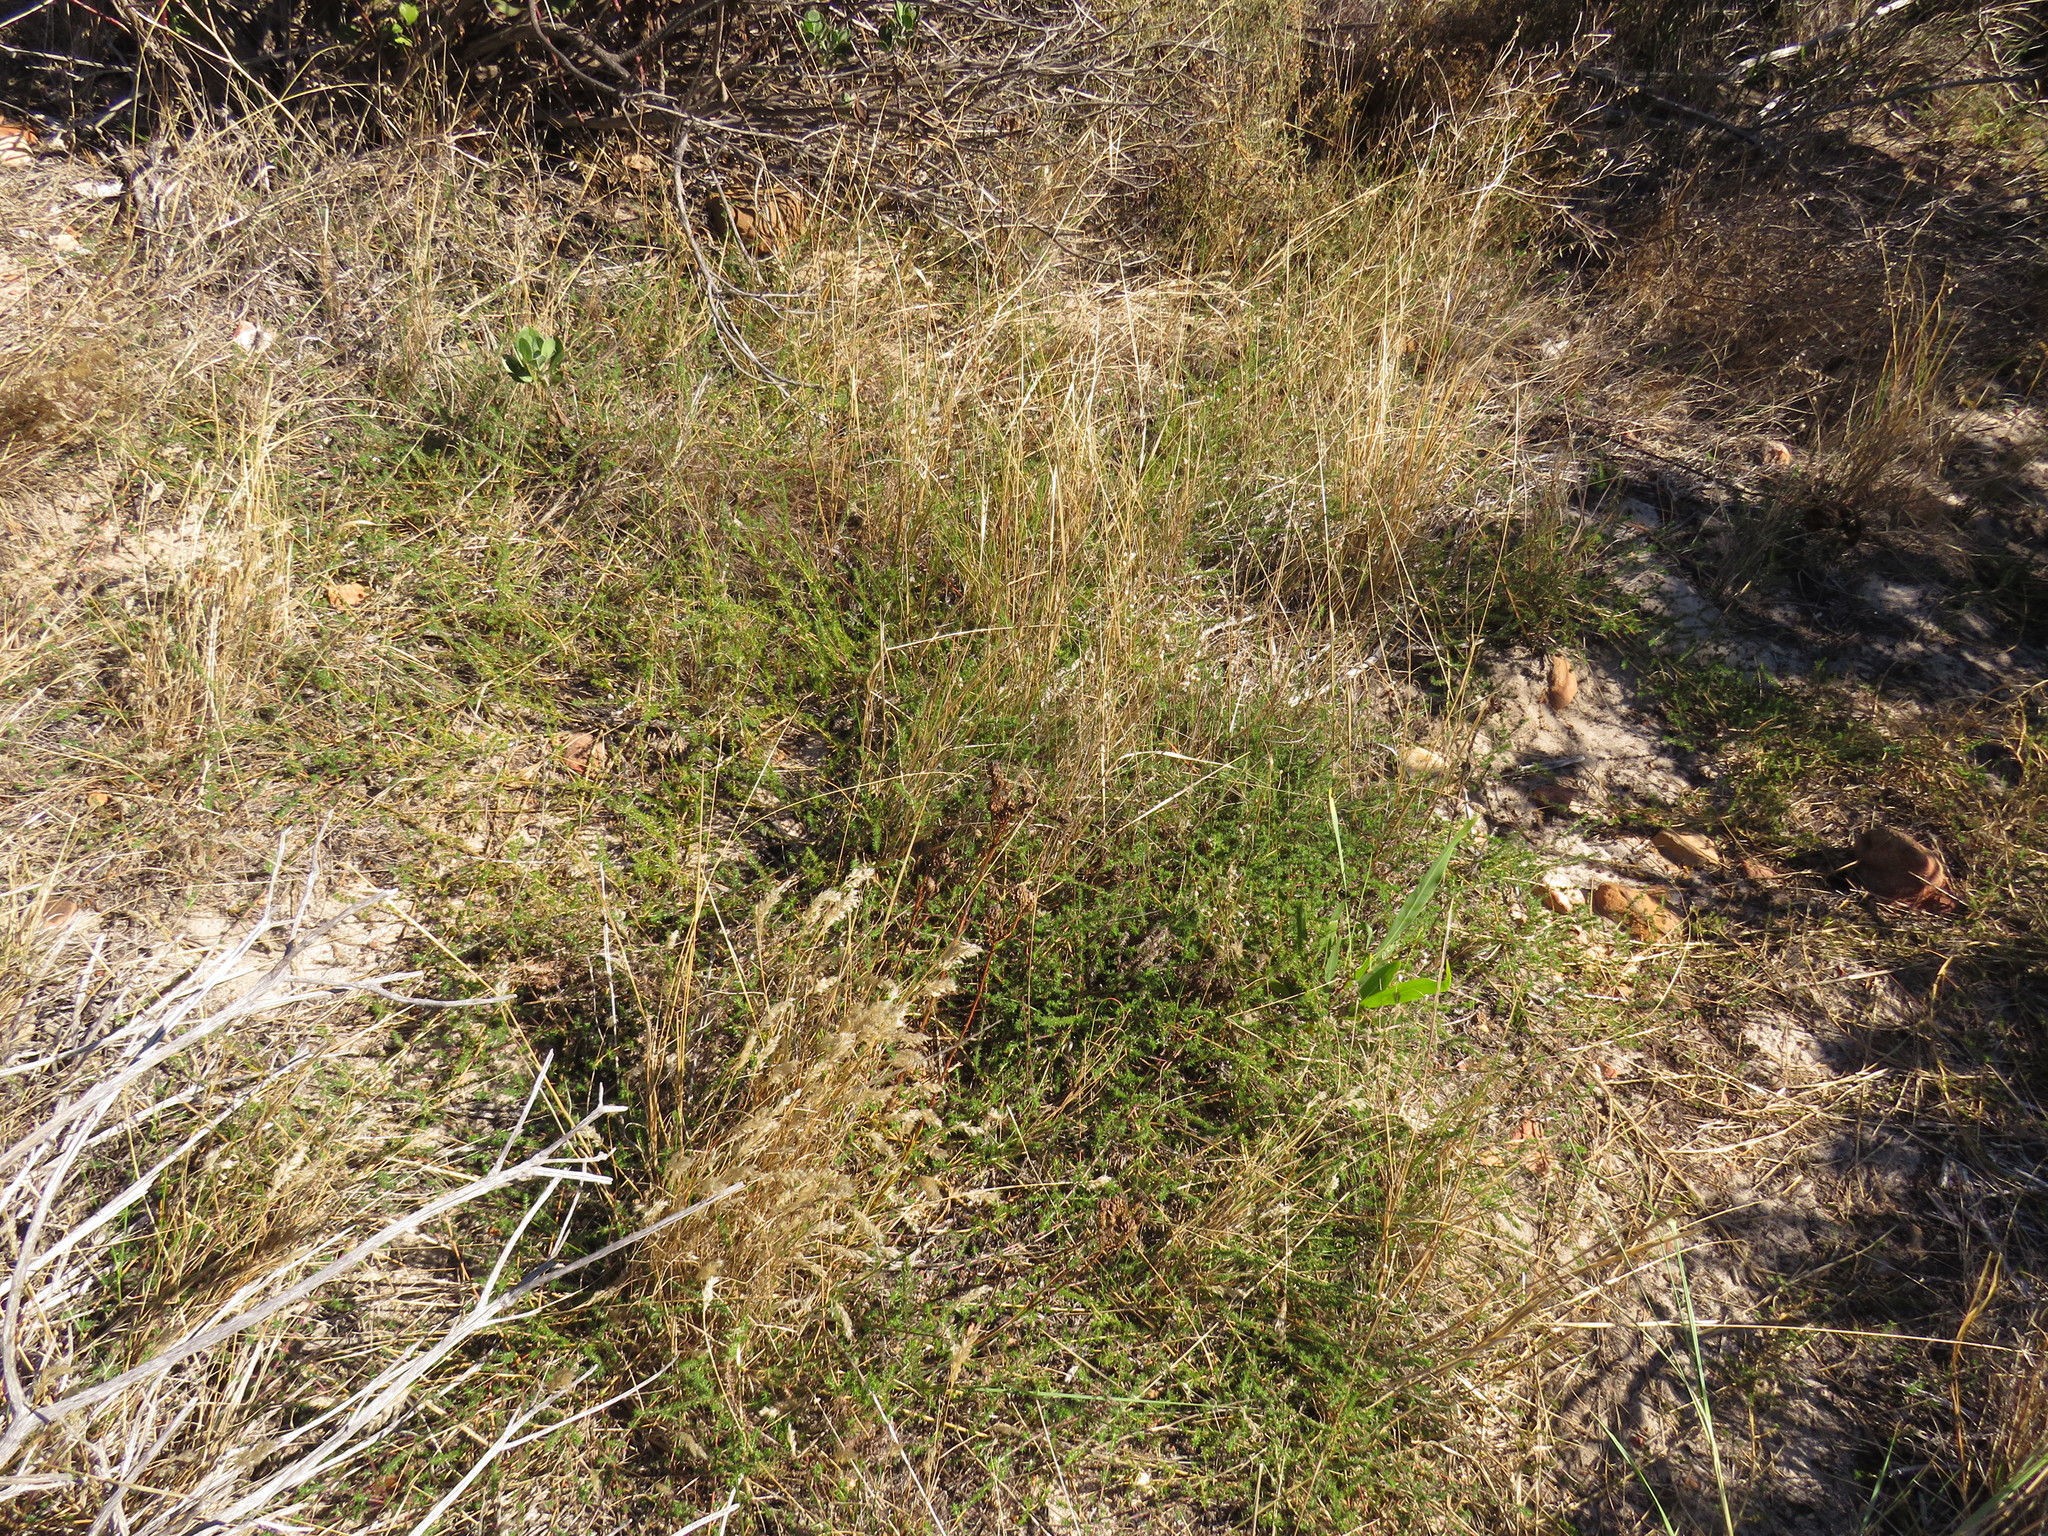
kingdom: Plantae
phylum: Tracheophyta
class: Magnoliopsida
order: Fabales
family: Fabaceae
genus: Aspalathus
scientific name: Aspalathus retroflexa
